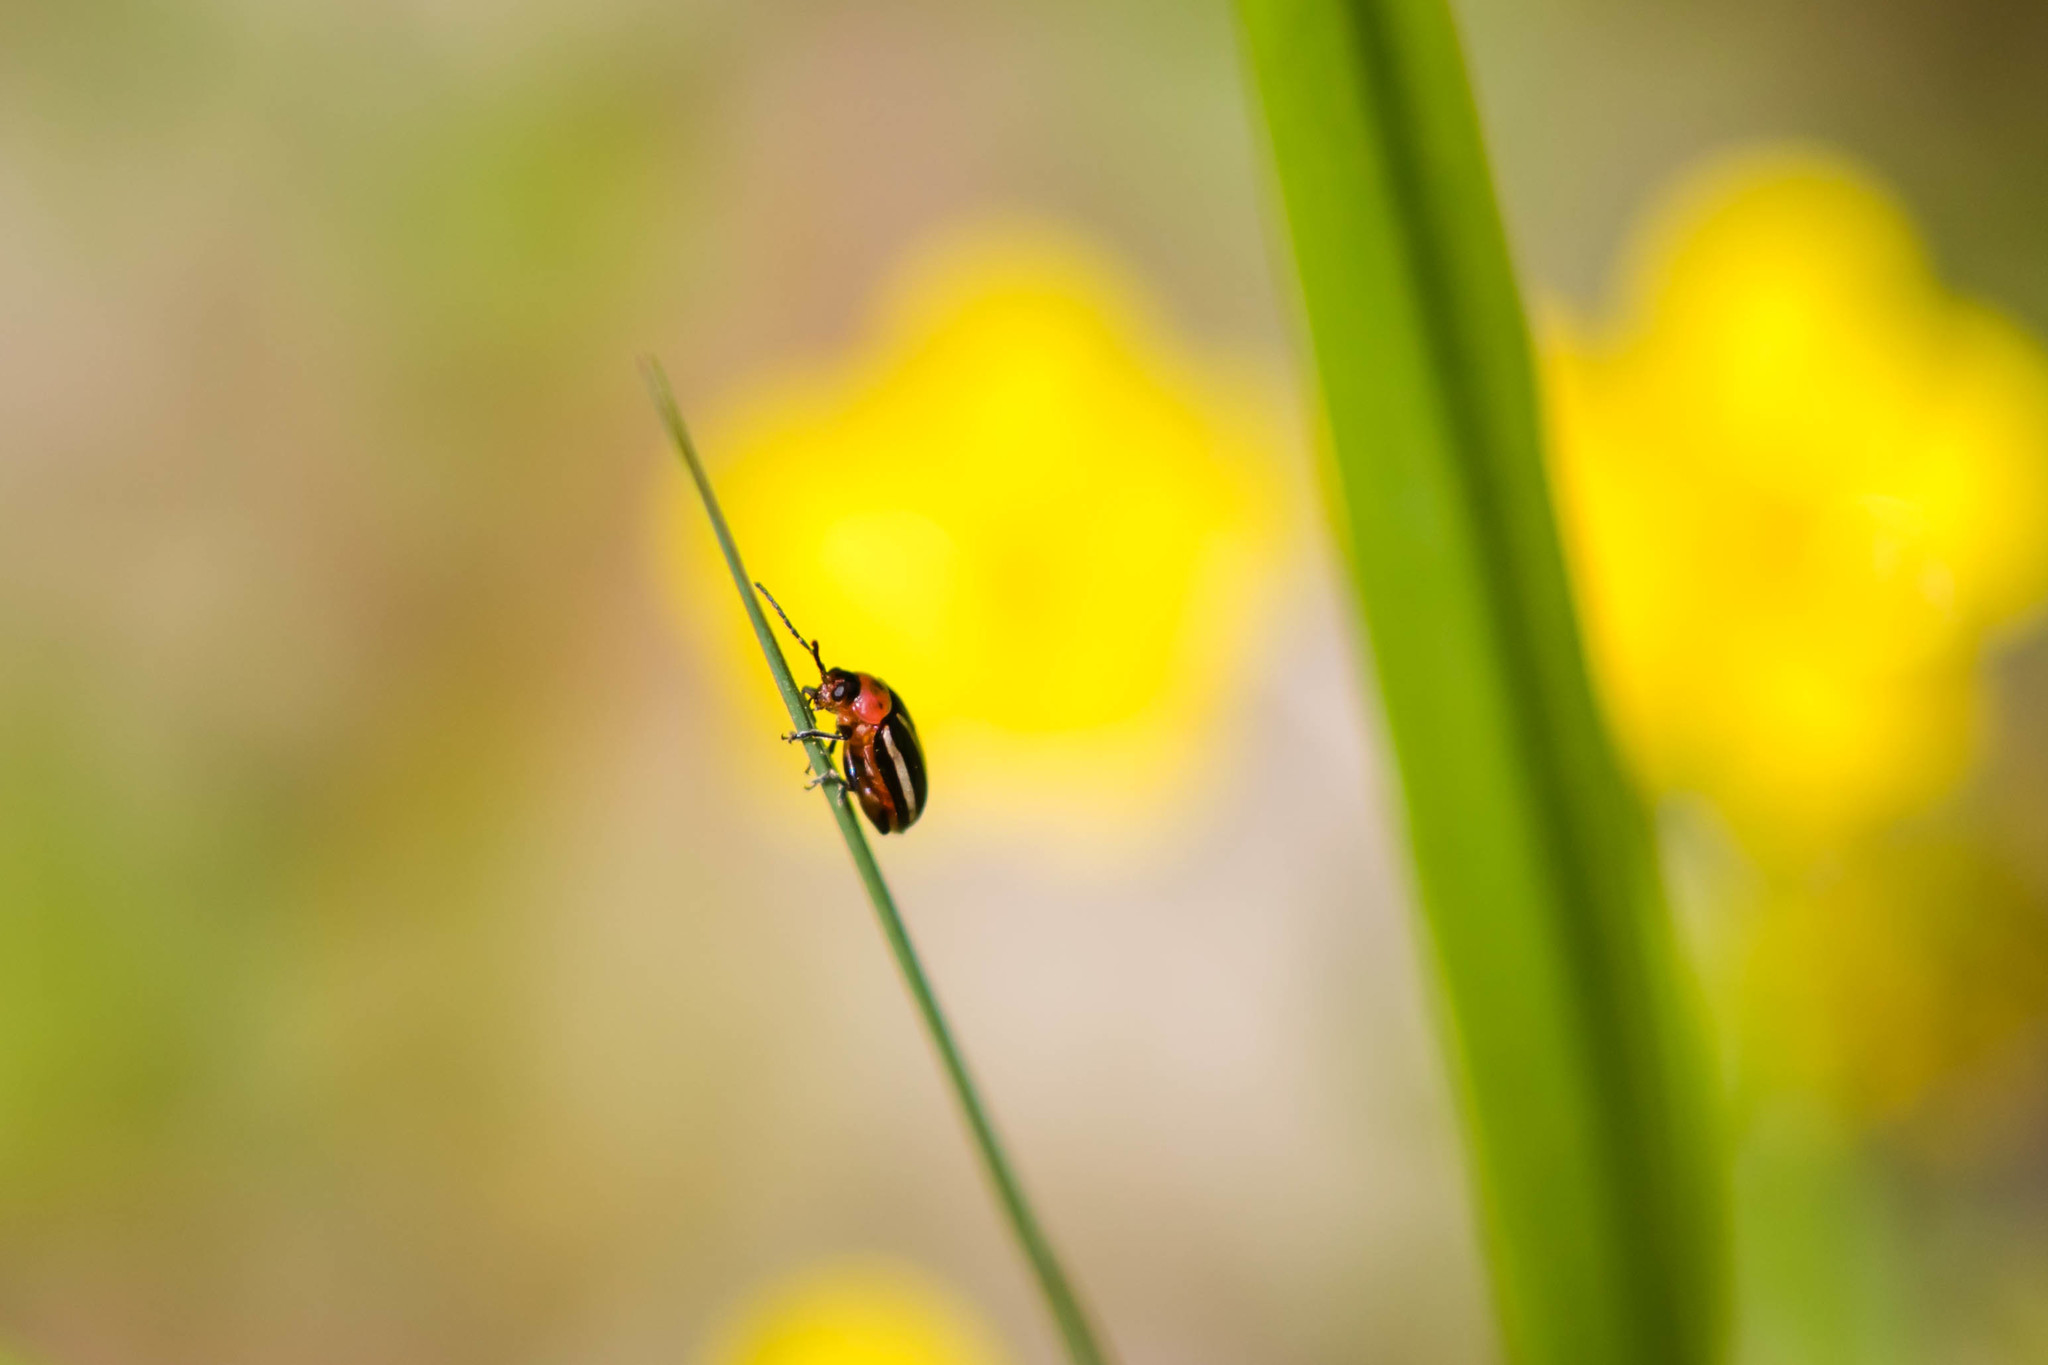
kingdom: Animalia
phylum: Arthropoda
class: Insecta
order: Coleoptera
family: Chrysomelidae
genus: Disonycha
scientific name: Disonycha glabrata
